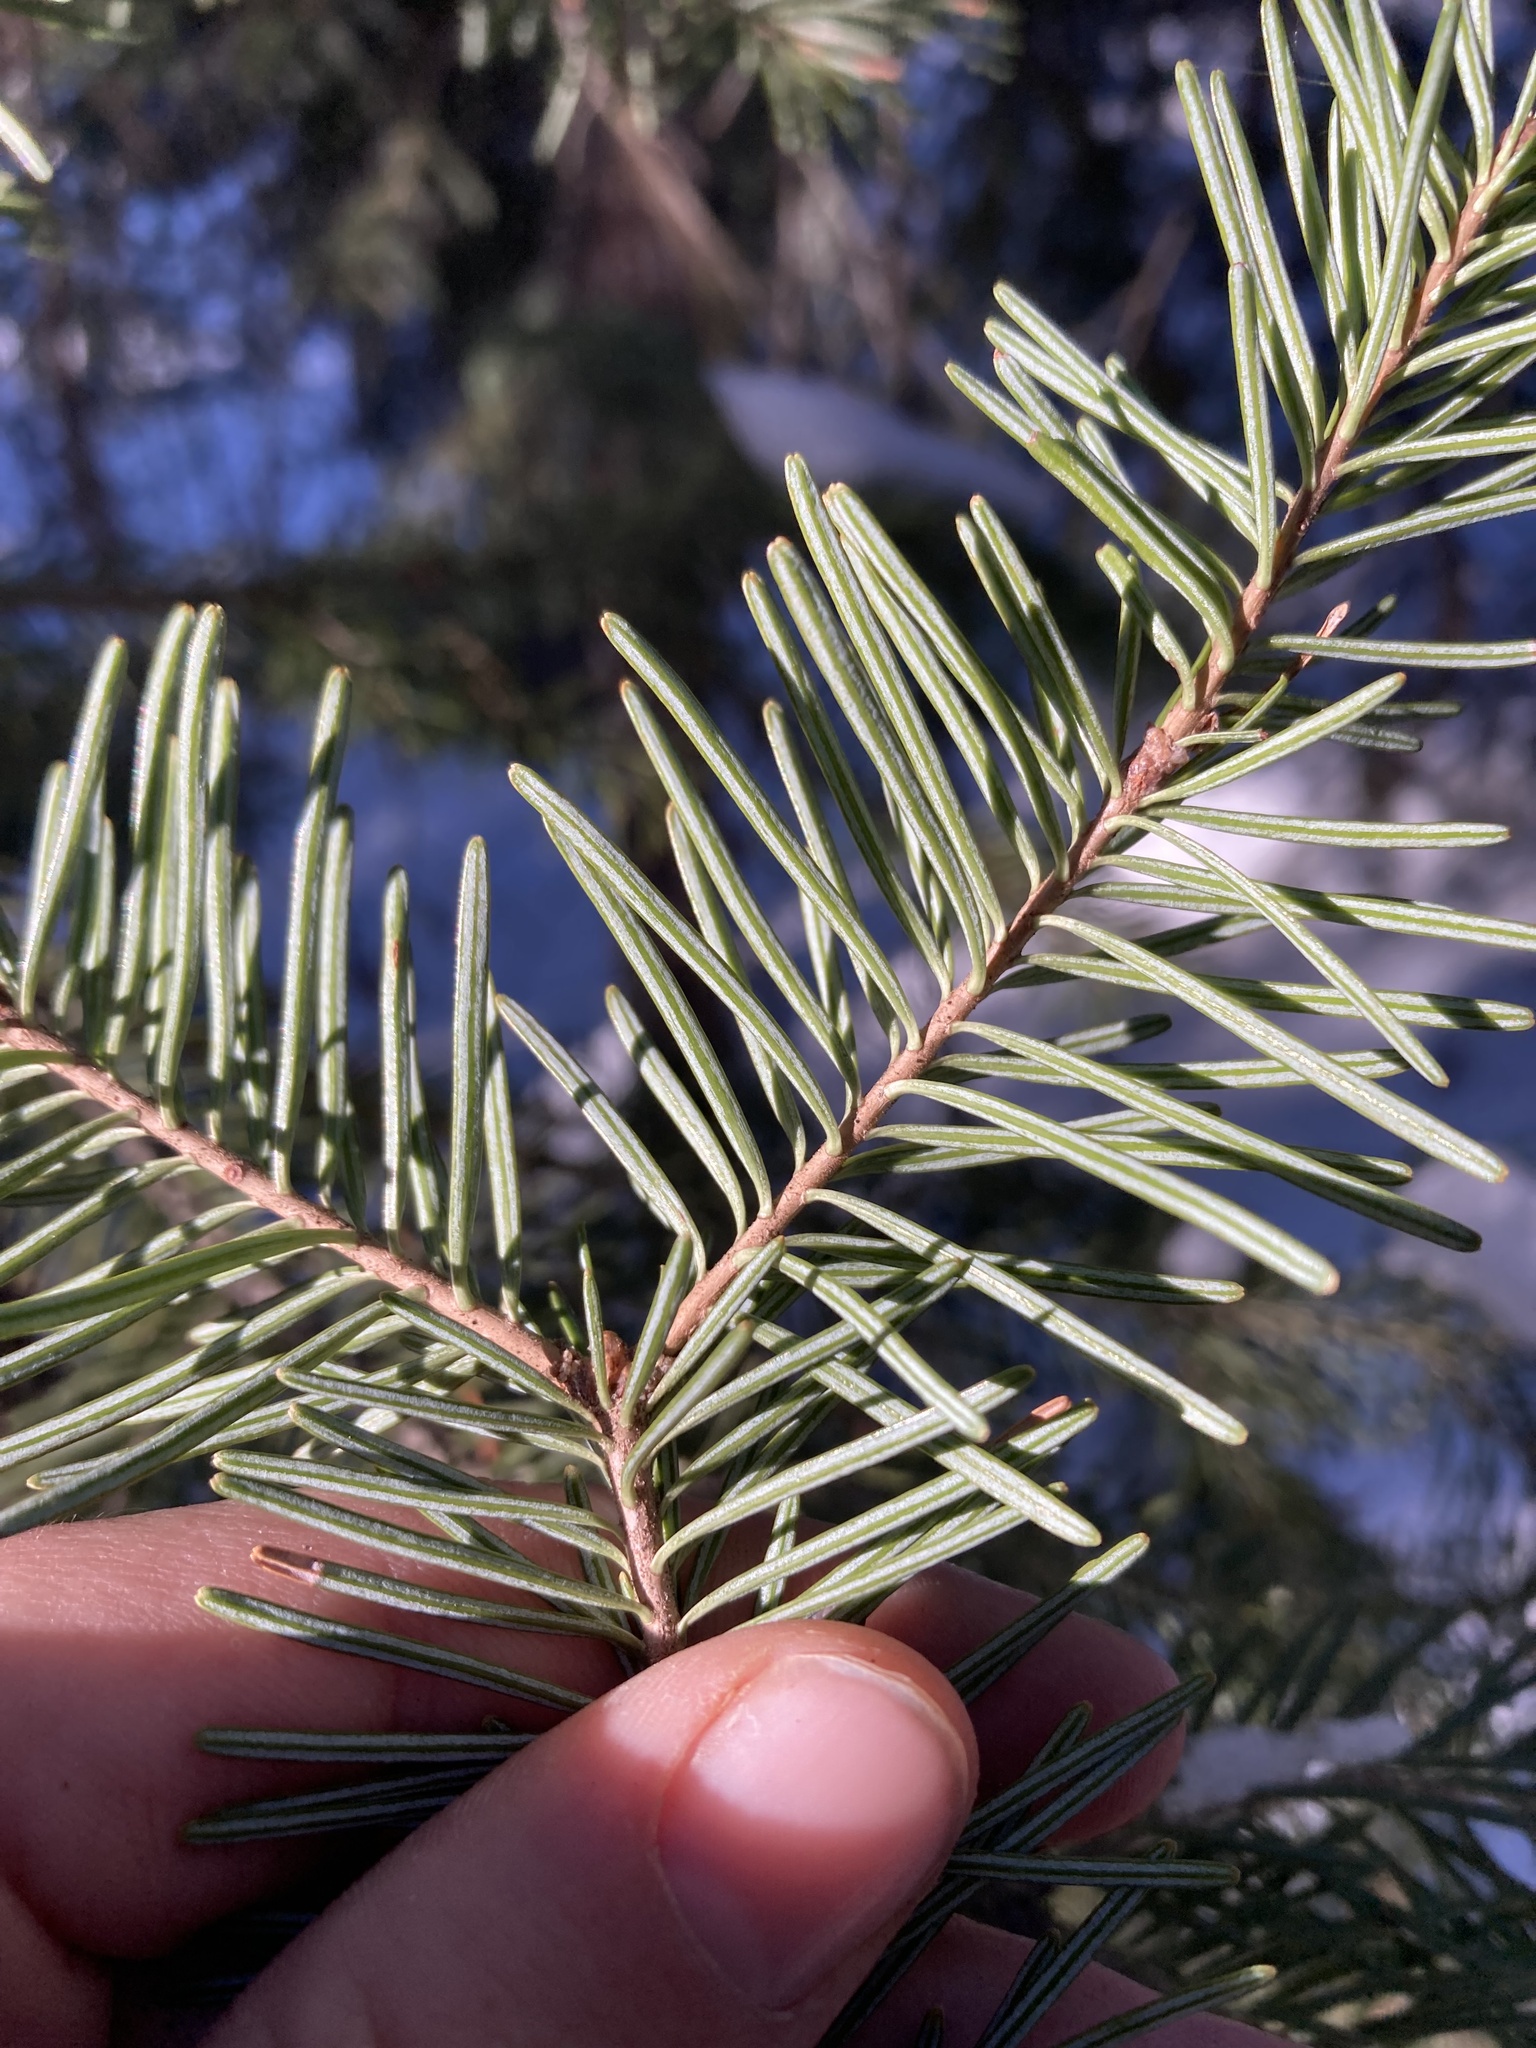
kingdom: Plantae
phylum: Tracheophyta
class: Pinopsida
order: Pinales
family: Pinaceae
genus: Abies
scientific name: Abies lasiocarpa
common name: Subalpine fir
